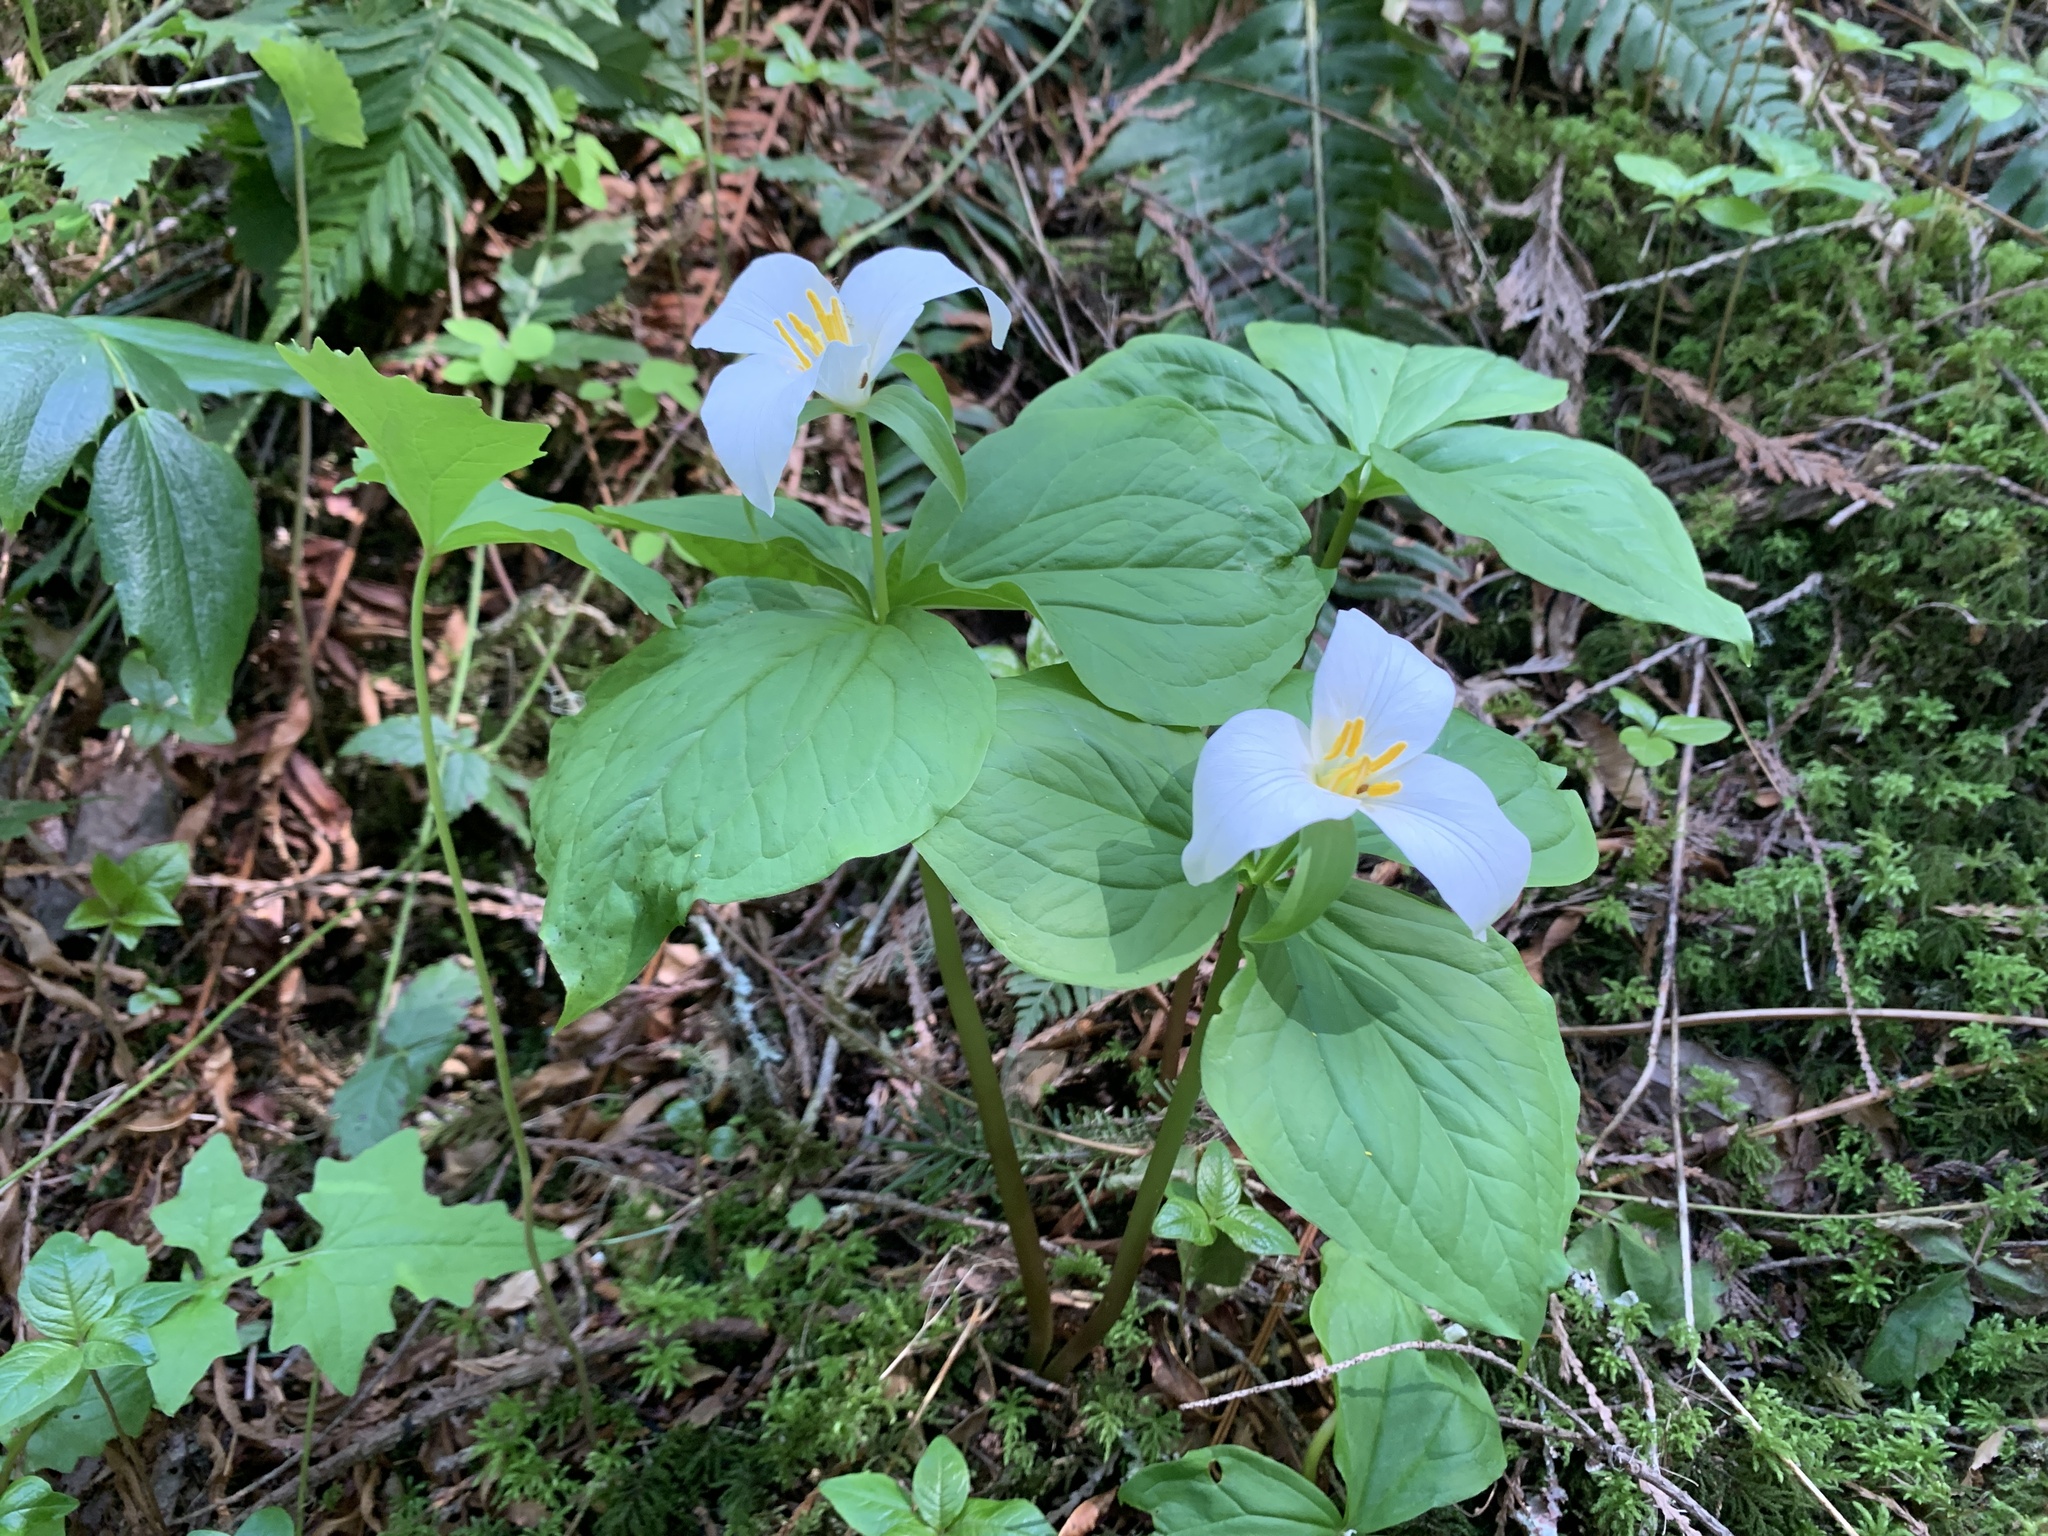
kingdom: Plantae
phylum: Tracheophyta
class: Liliopsida
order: Liliales
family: Melanthiaceae
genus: Trillium
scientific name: Trillium ovatum
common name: Pacific trillium
